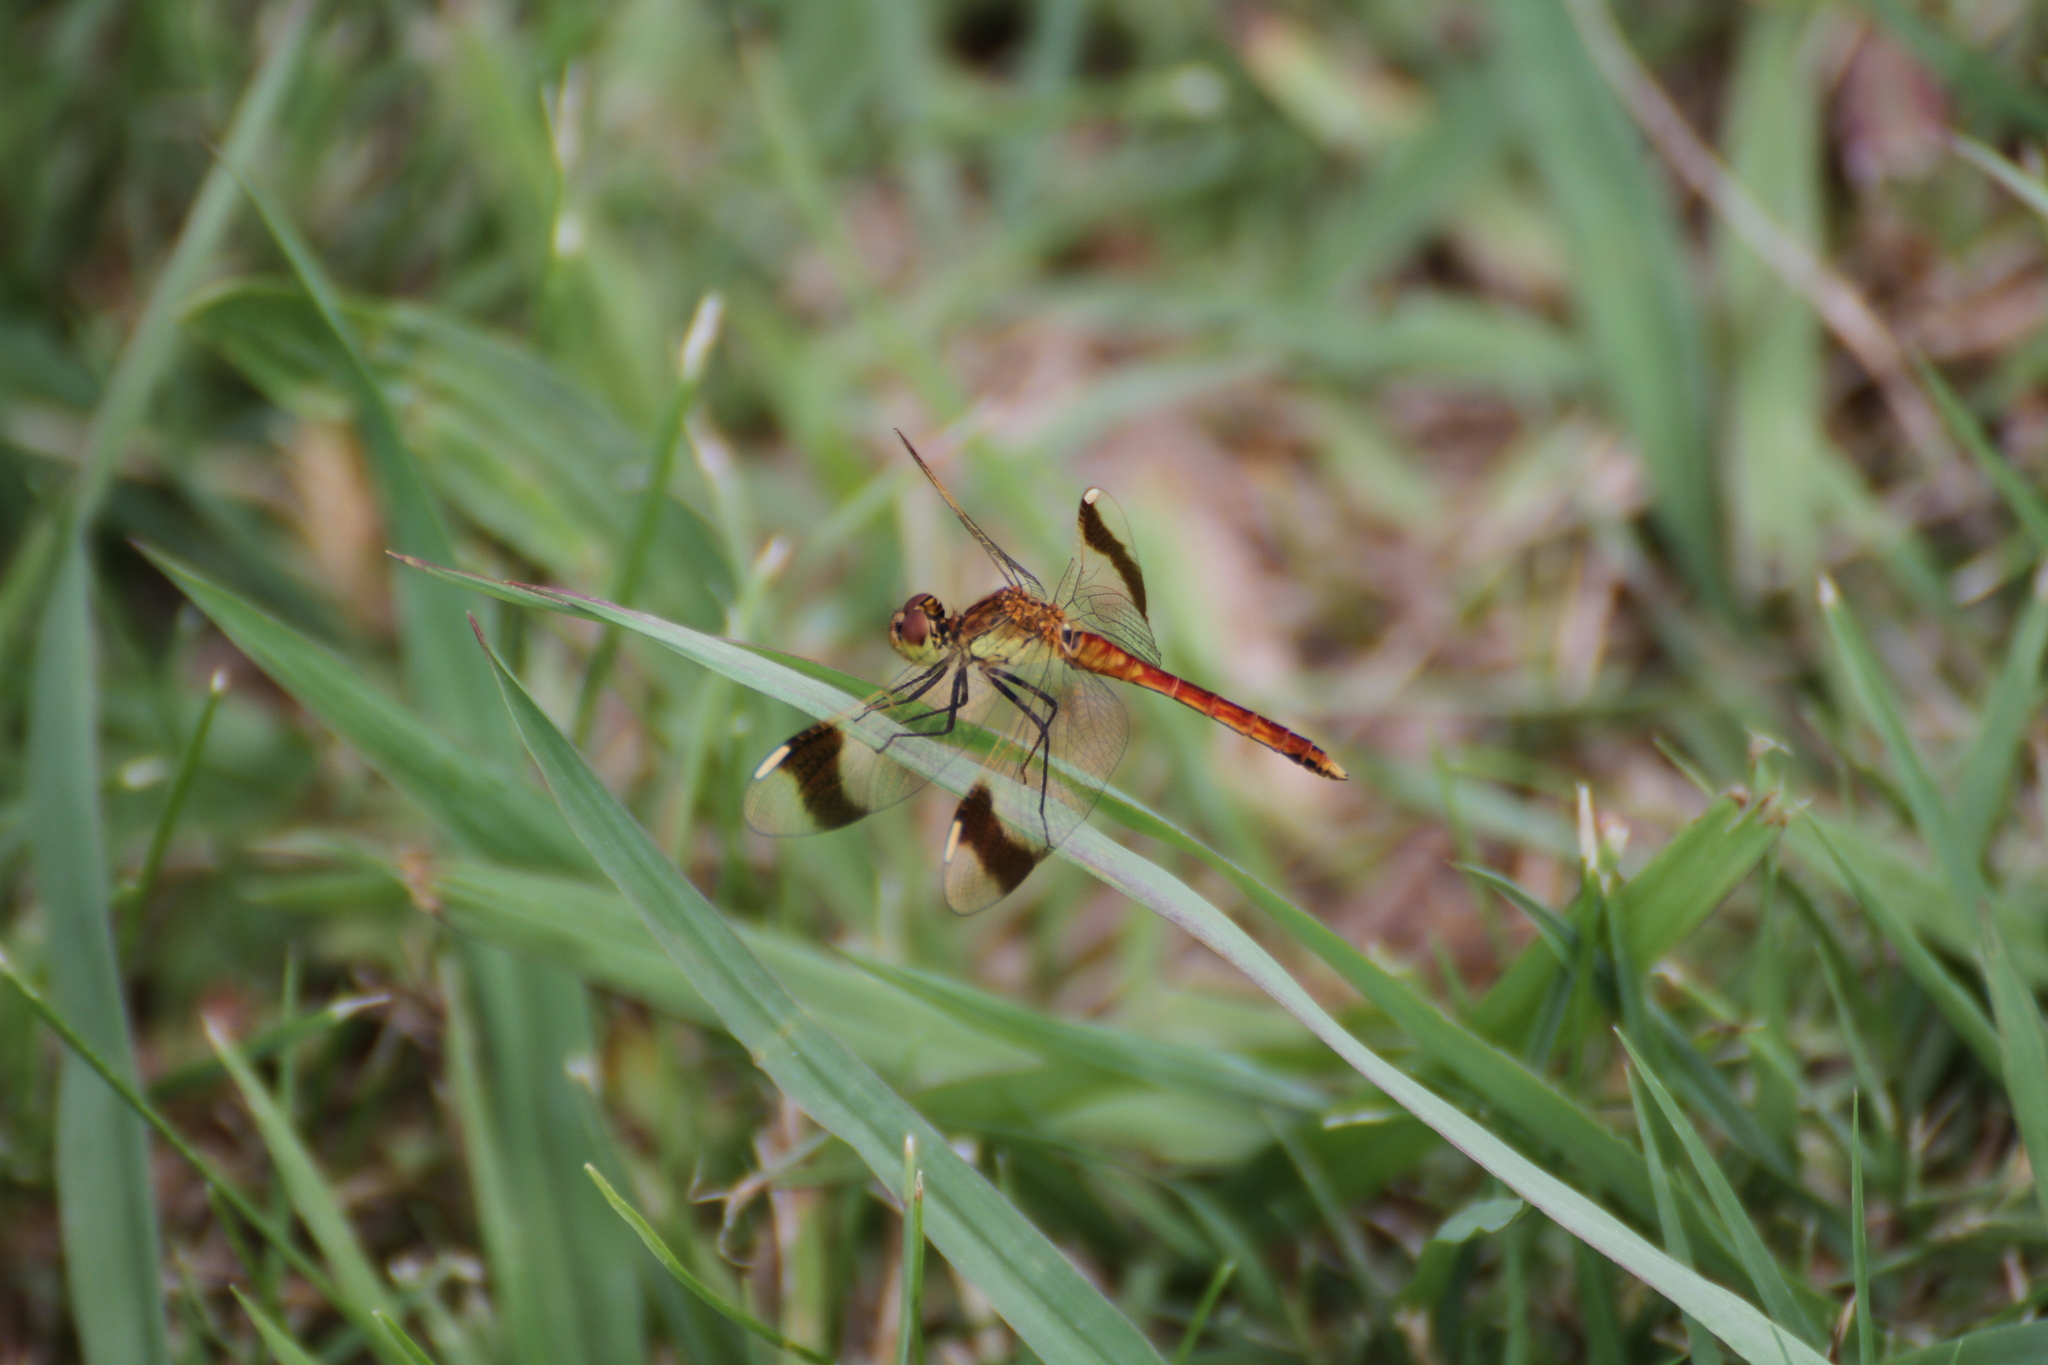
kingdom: Animalia
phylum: Arthropoda
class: Insecta
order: Odonata
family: Libellulidae
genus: Sympetrum
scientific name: Sympetrum pedemontanum
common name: Banded darter
